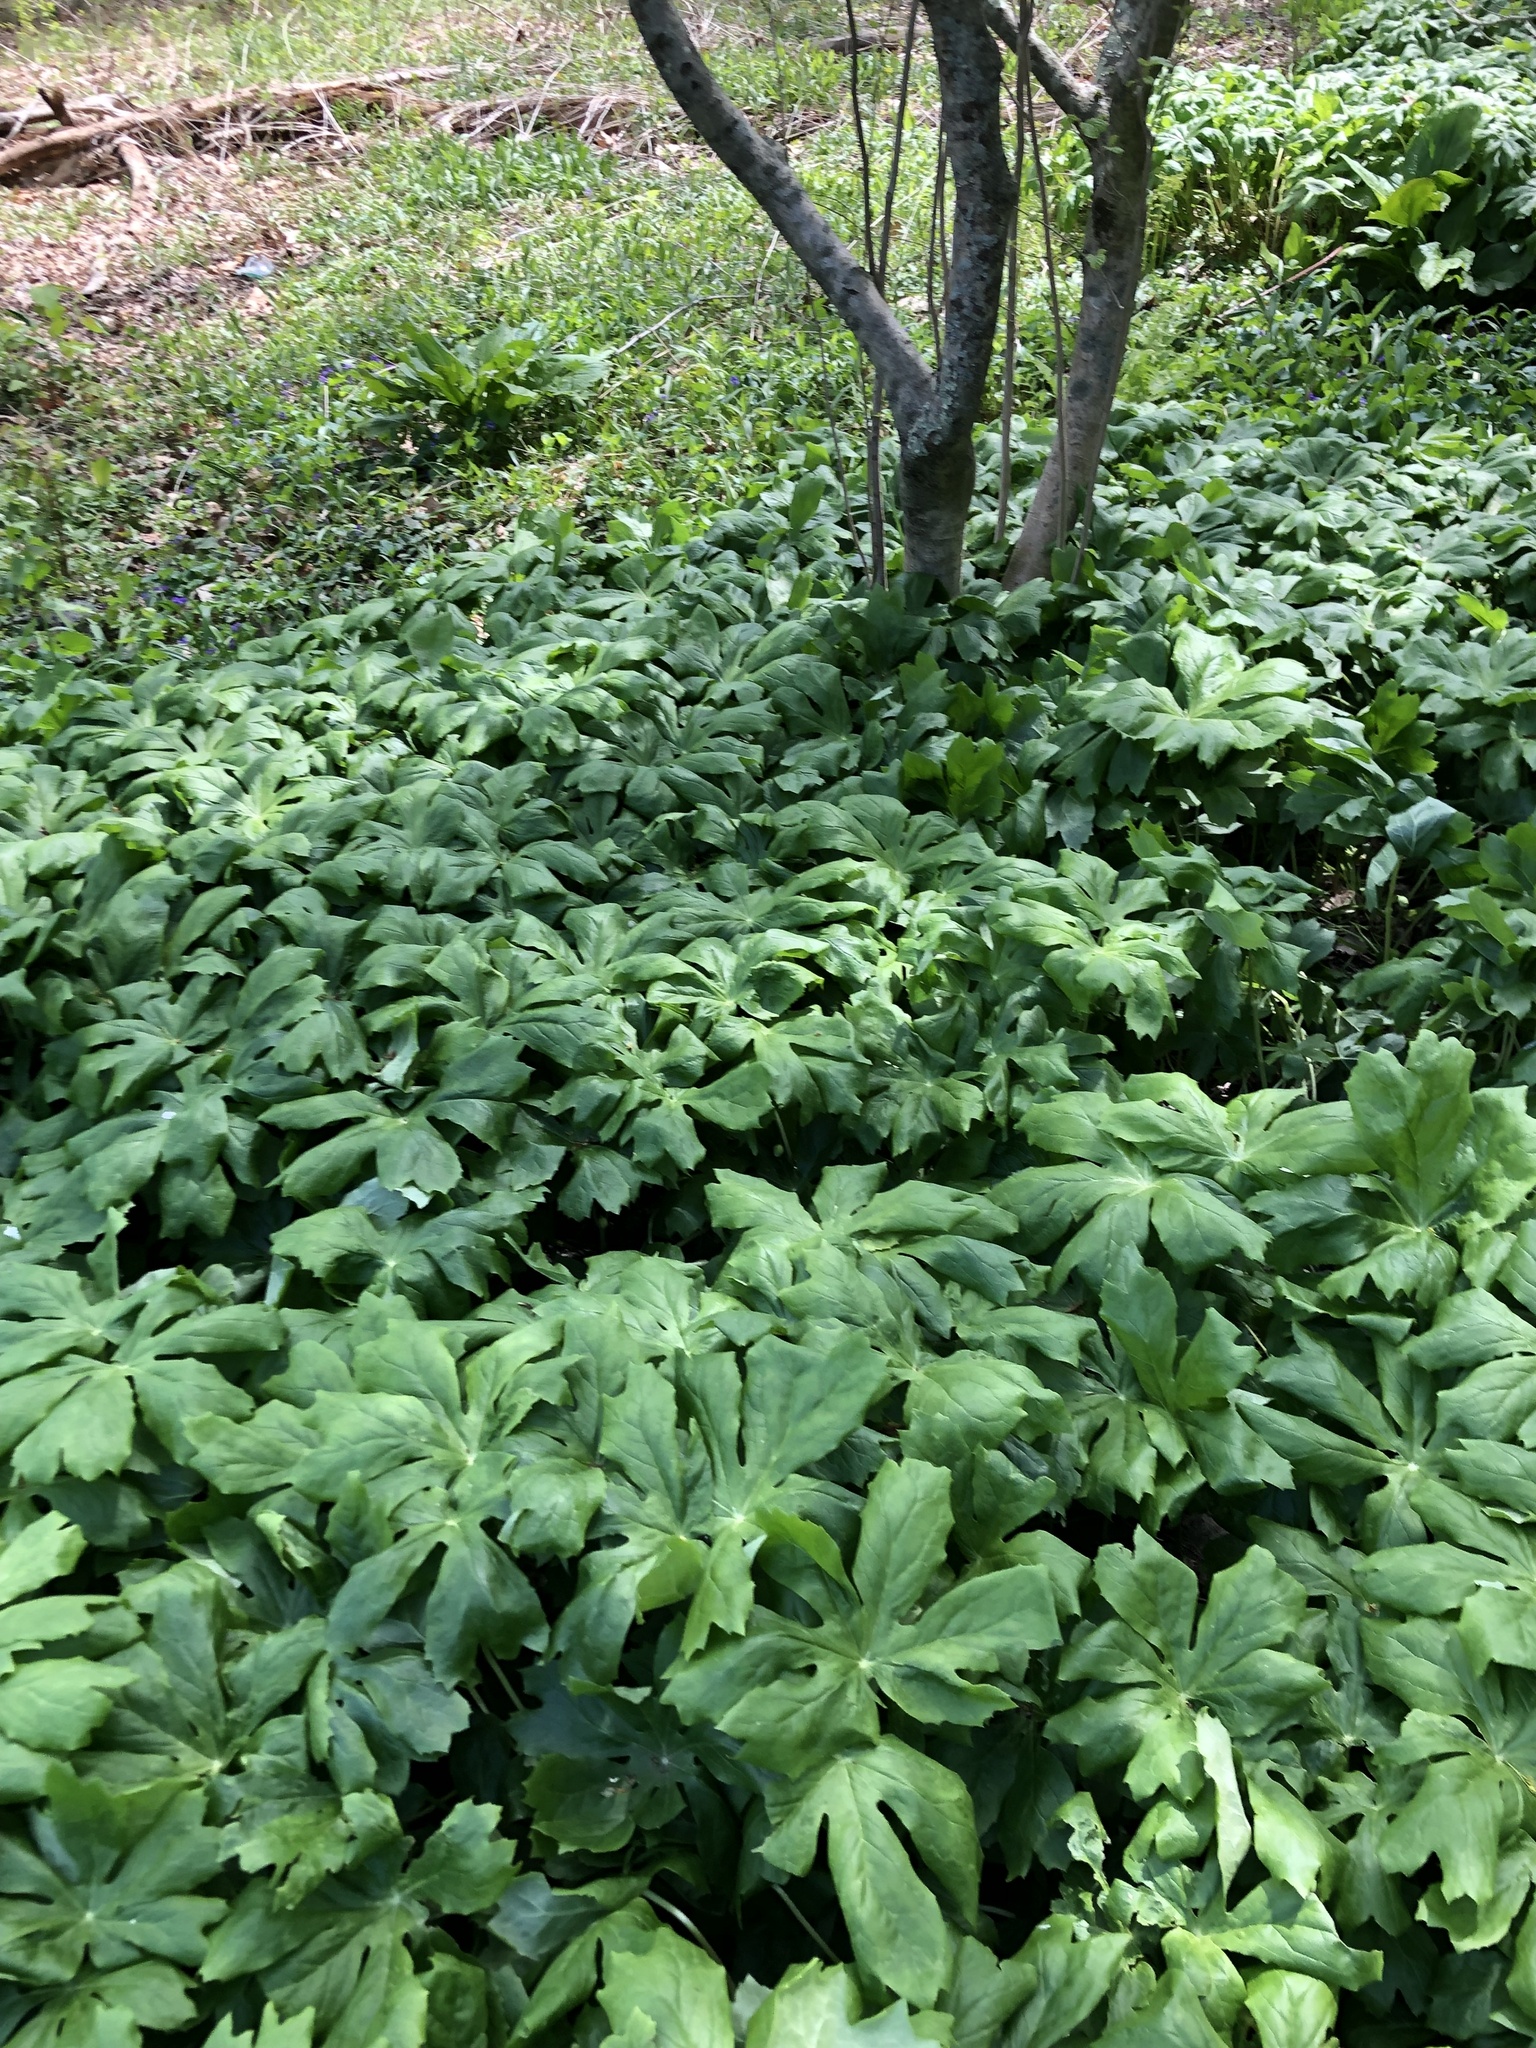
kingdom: Plantae
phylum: Tracheophyta
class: Magnoliopsida
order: Ranunculales
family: Berberidaceae
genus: Podophyllum
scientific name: Podophyllum peltatum
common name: Wild mandrake
